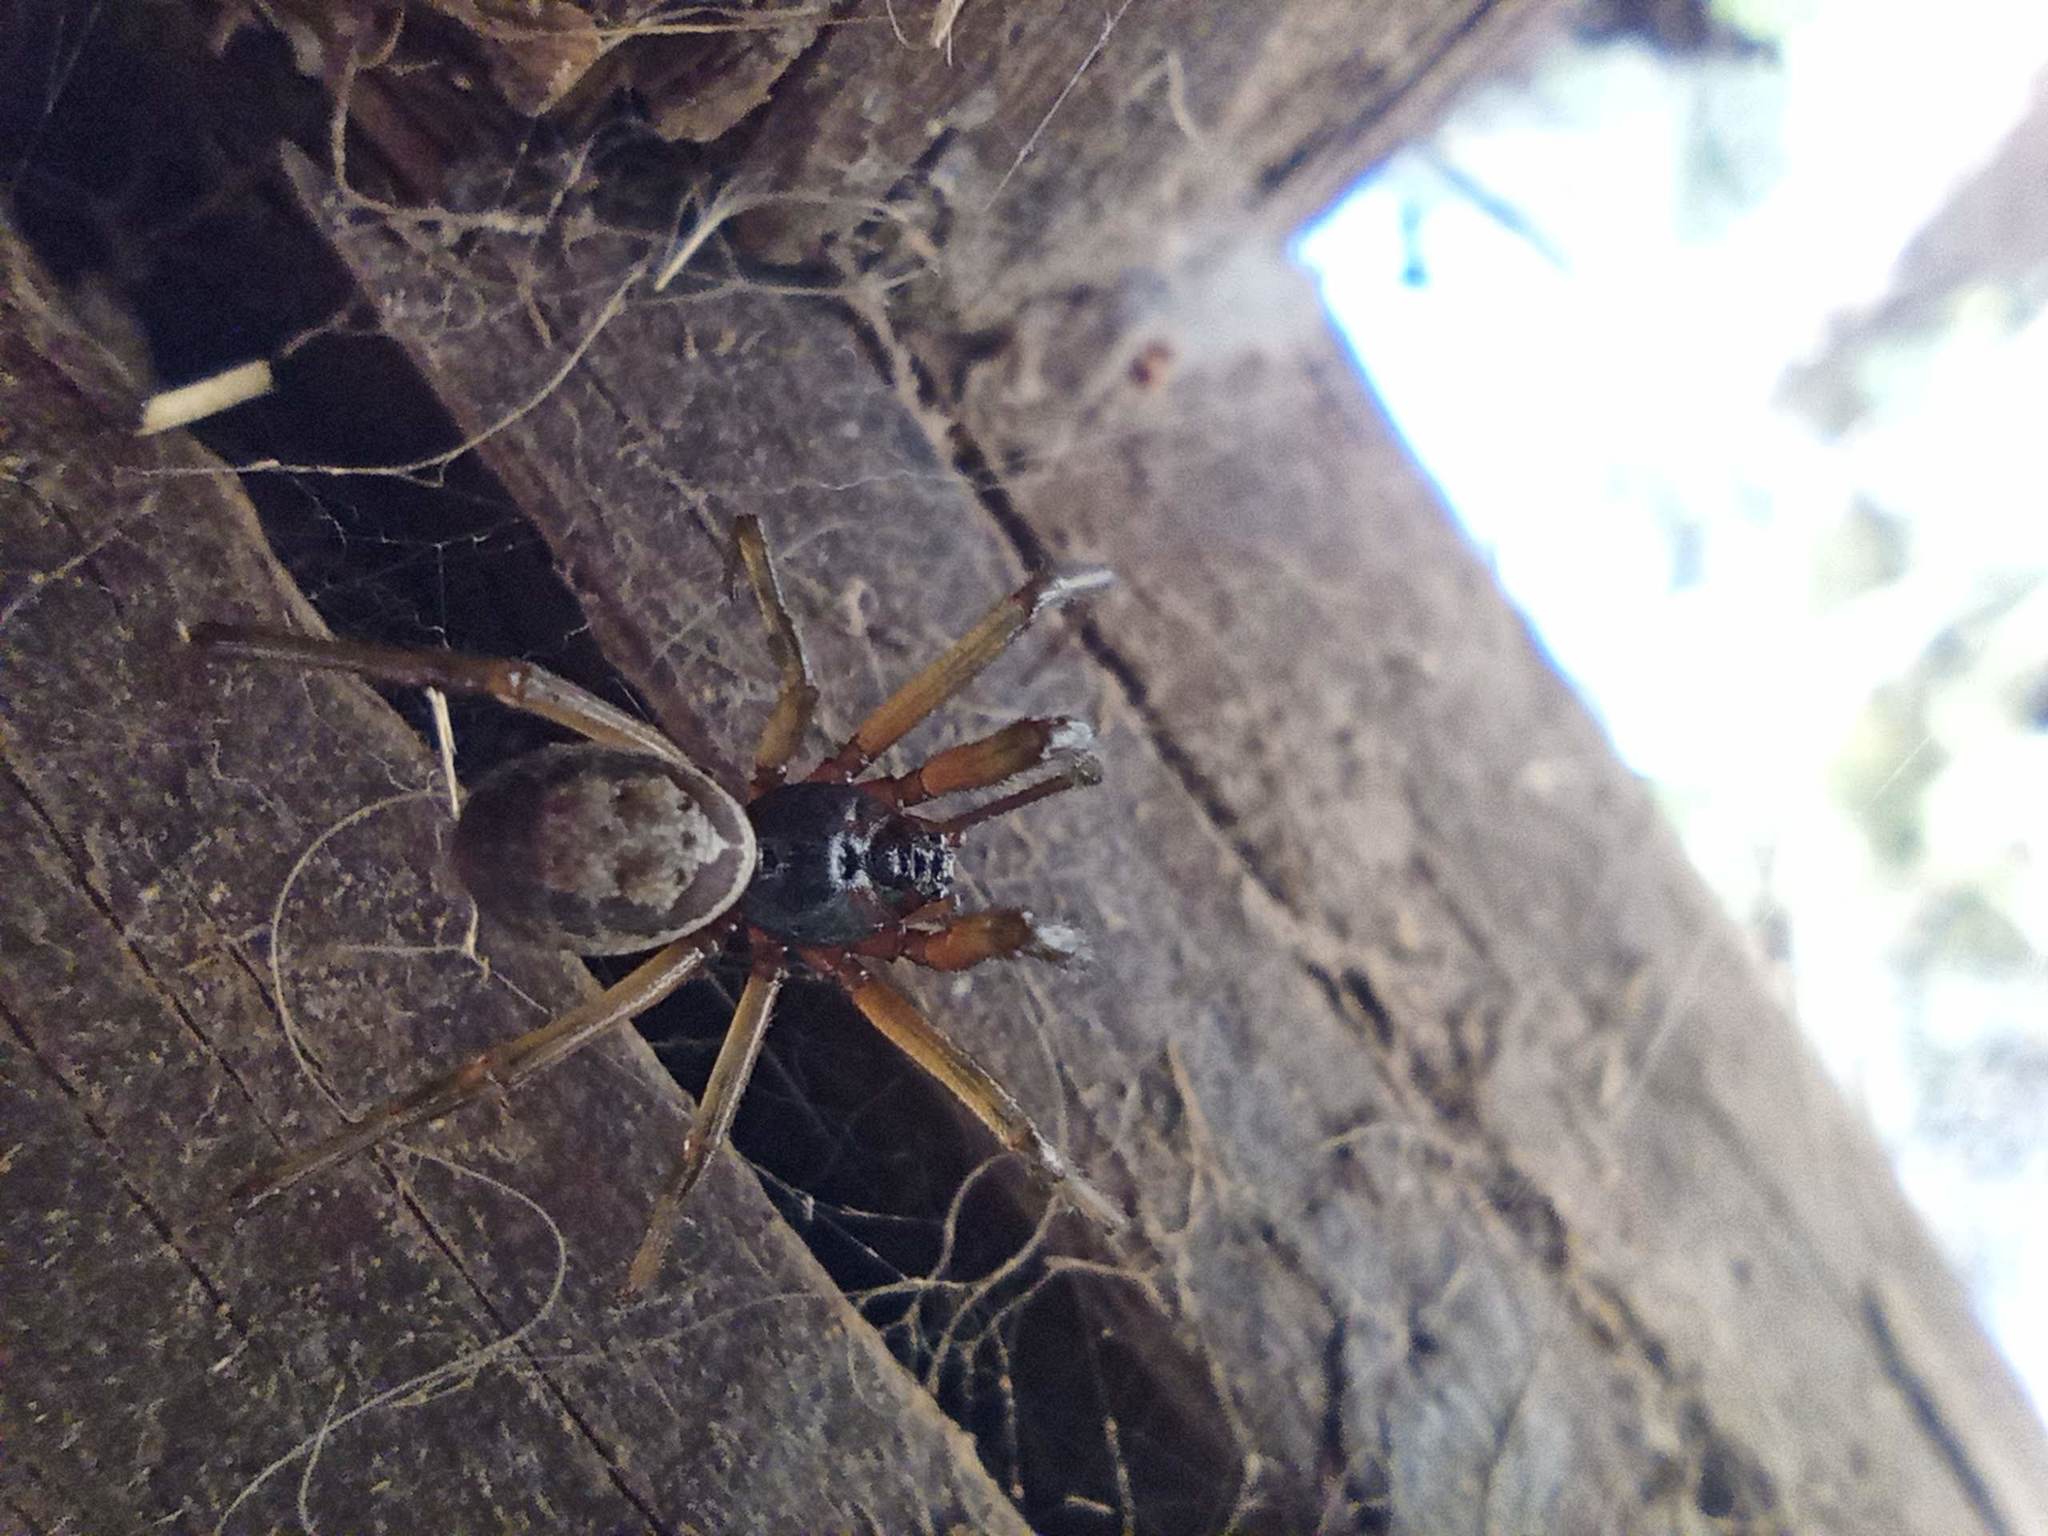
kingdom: Animalia
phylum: Arthropoda
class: Arachnida
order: Araneae
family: Theridiidae
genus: Steatoda
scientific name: Steatoda nobilis
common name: Cobweb weaver
